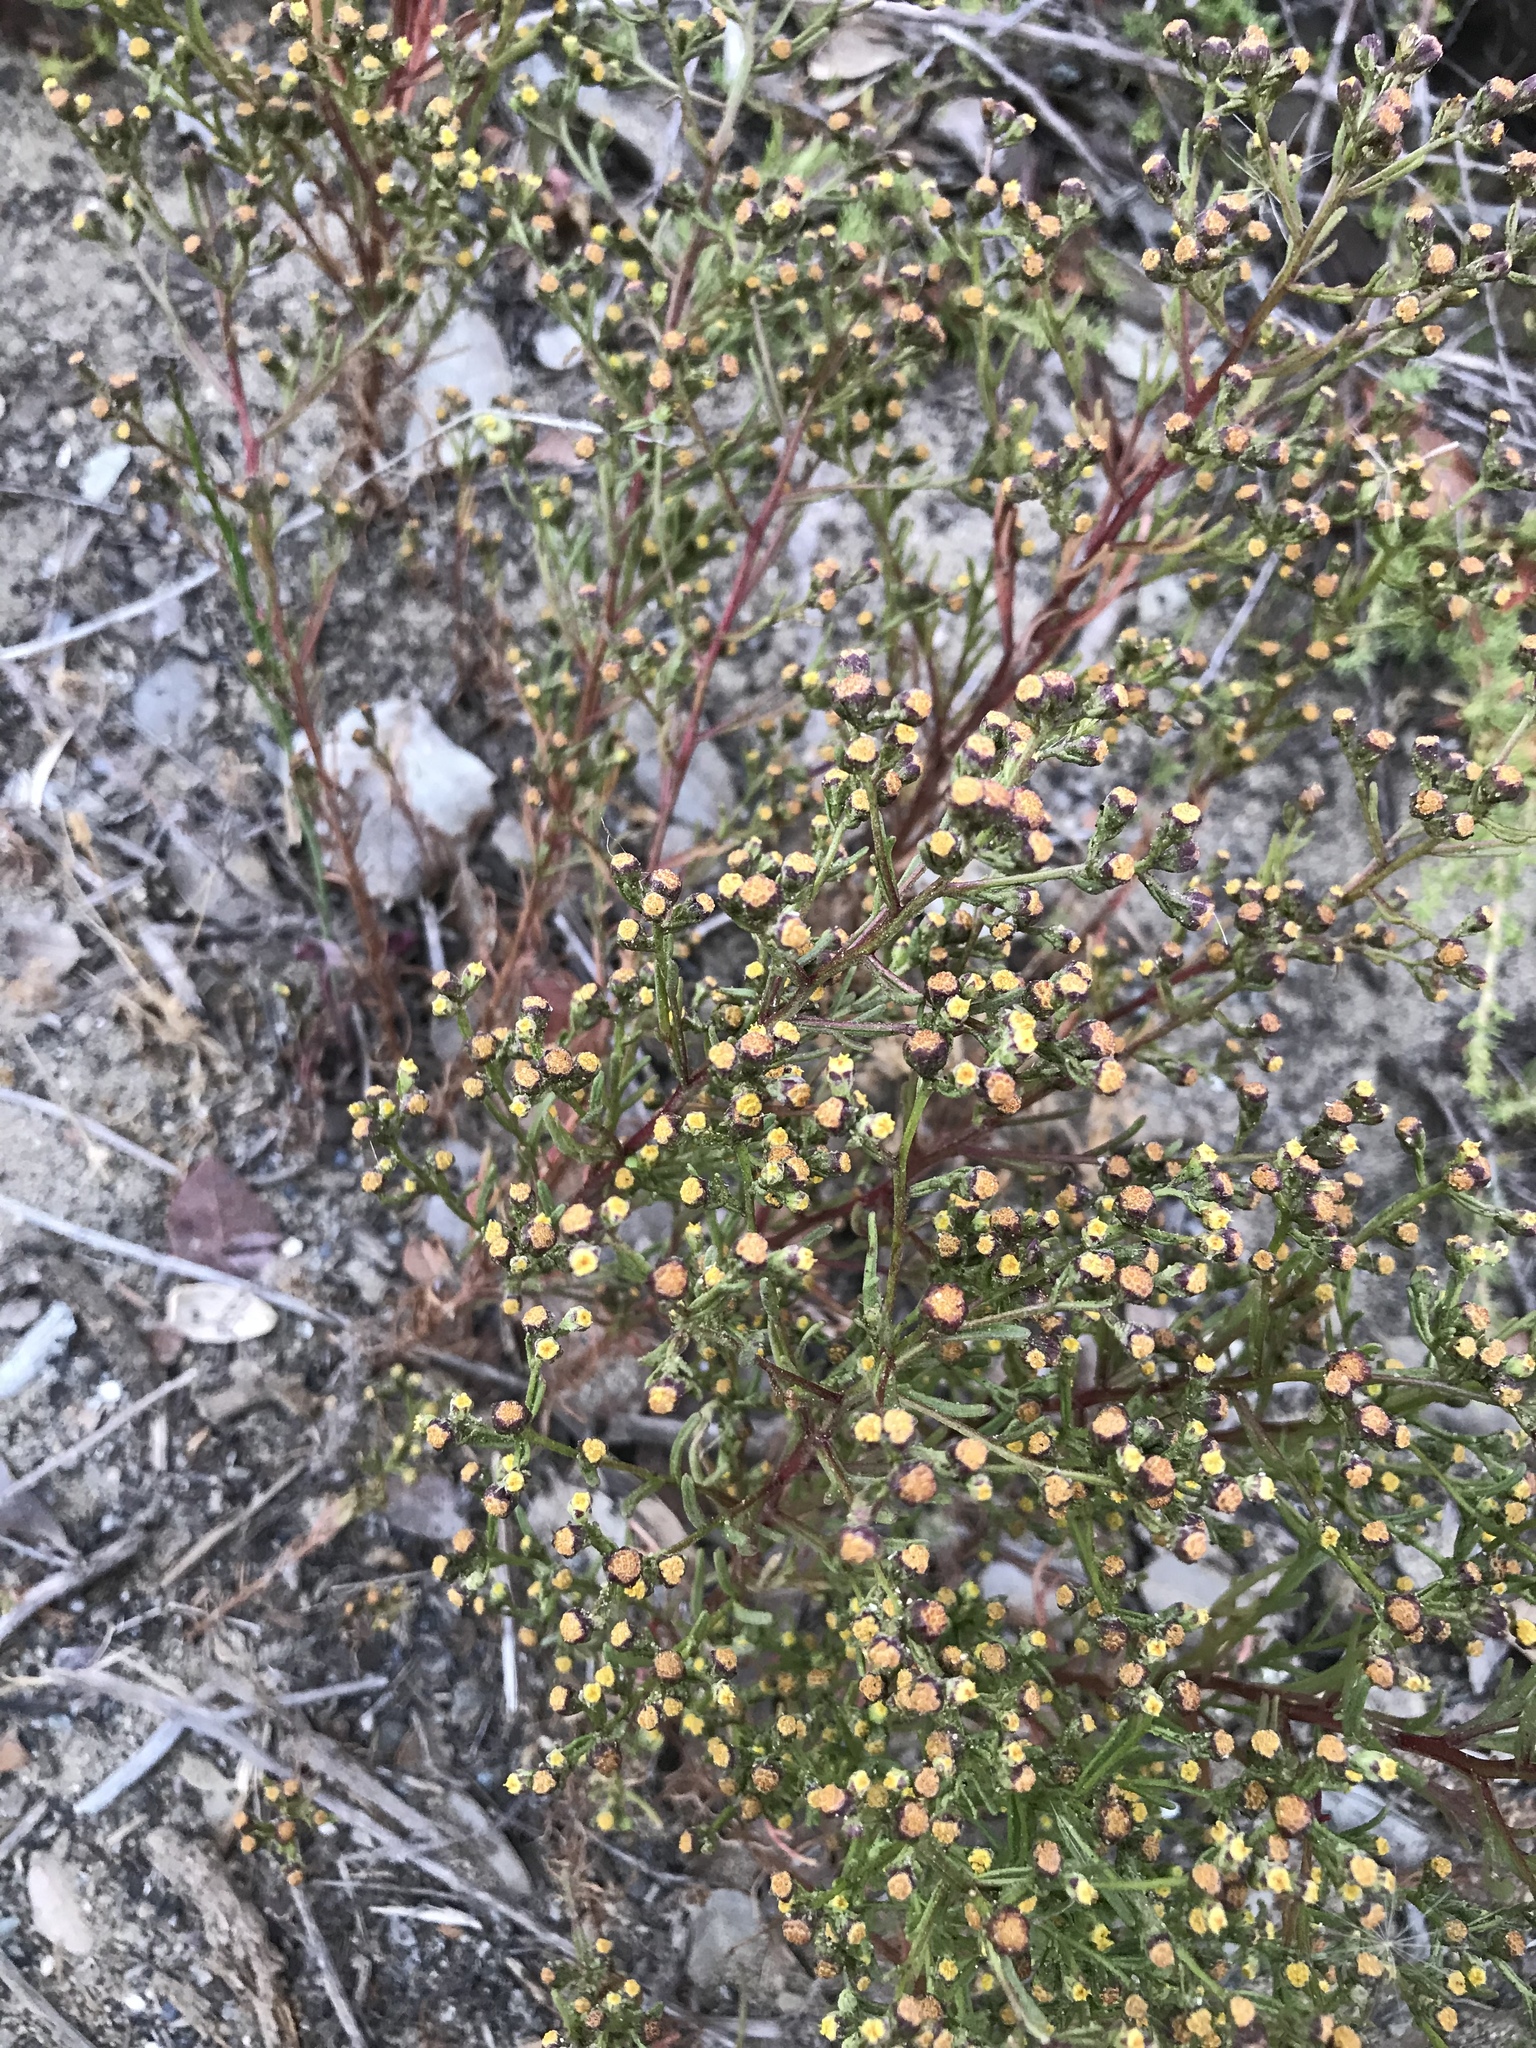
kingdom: Plantae
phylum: Tracheophyta
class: Magnoliopsida
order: Asterales
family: Asteraceae
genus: Amblyopappus
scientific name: Amblyopappus pusillus
